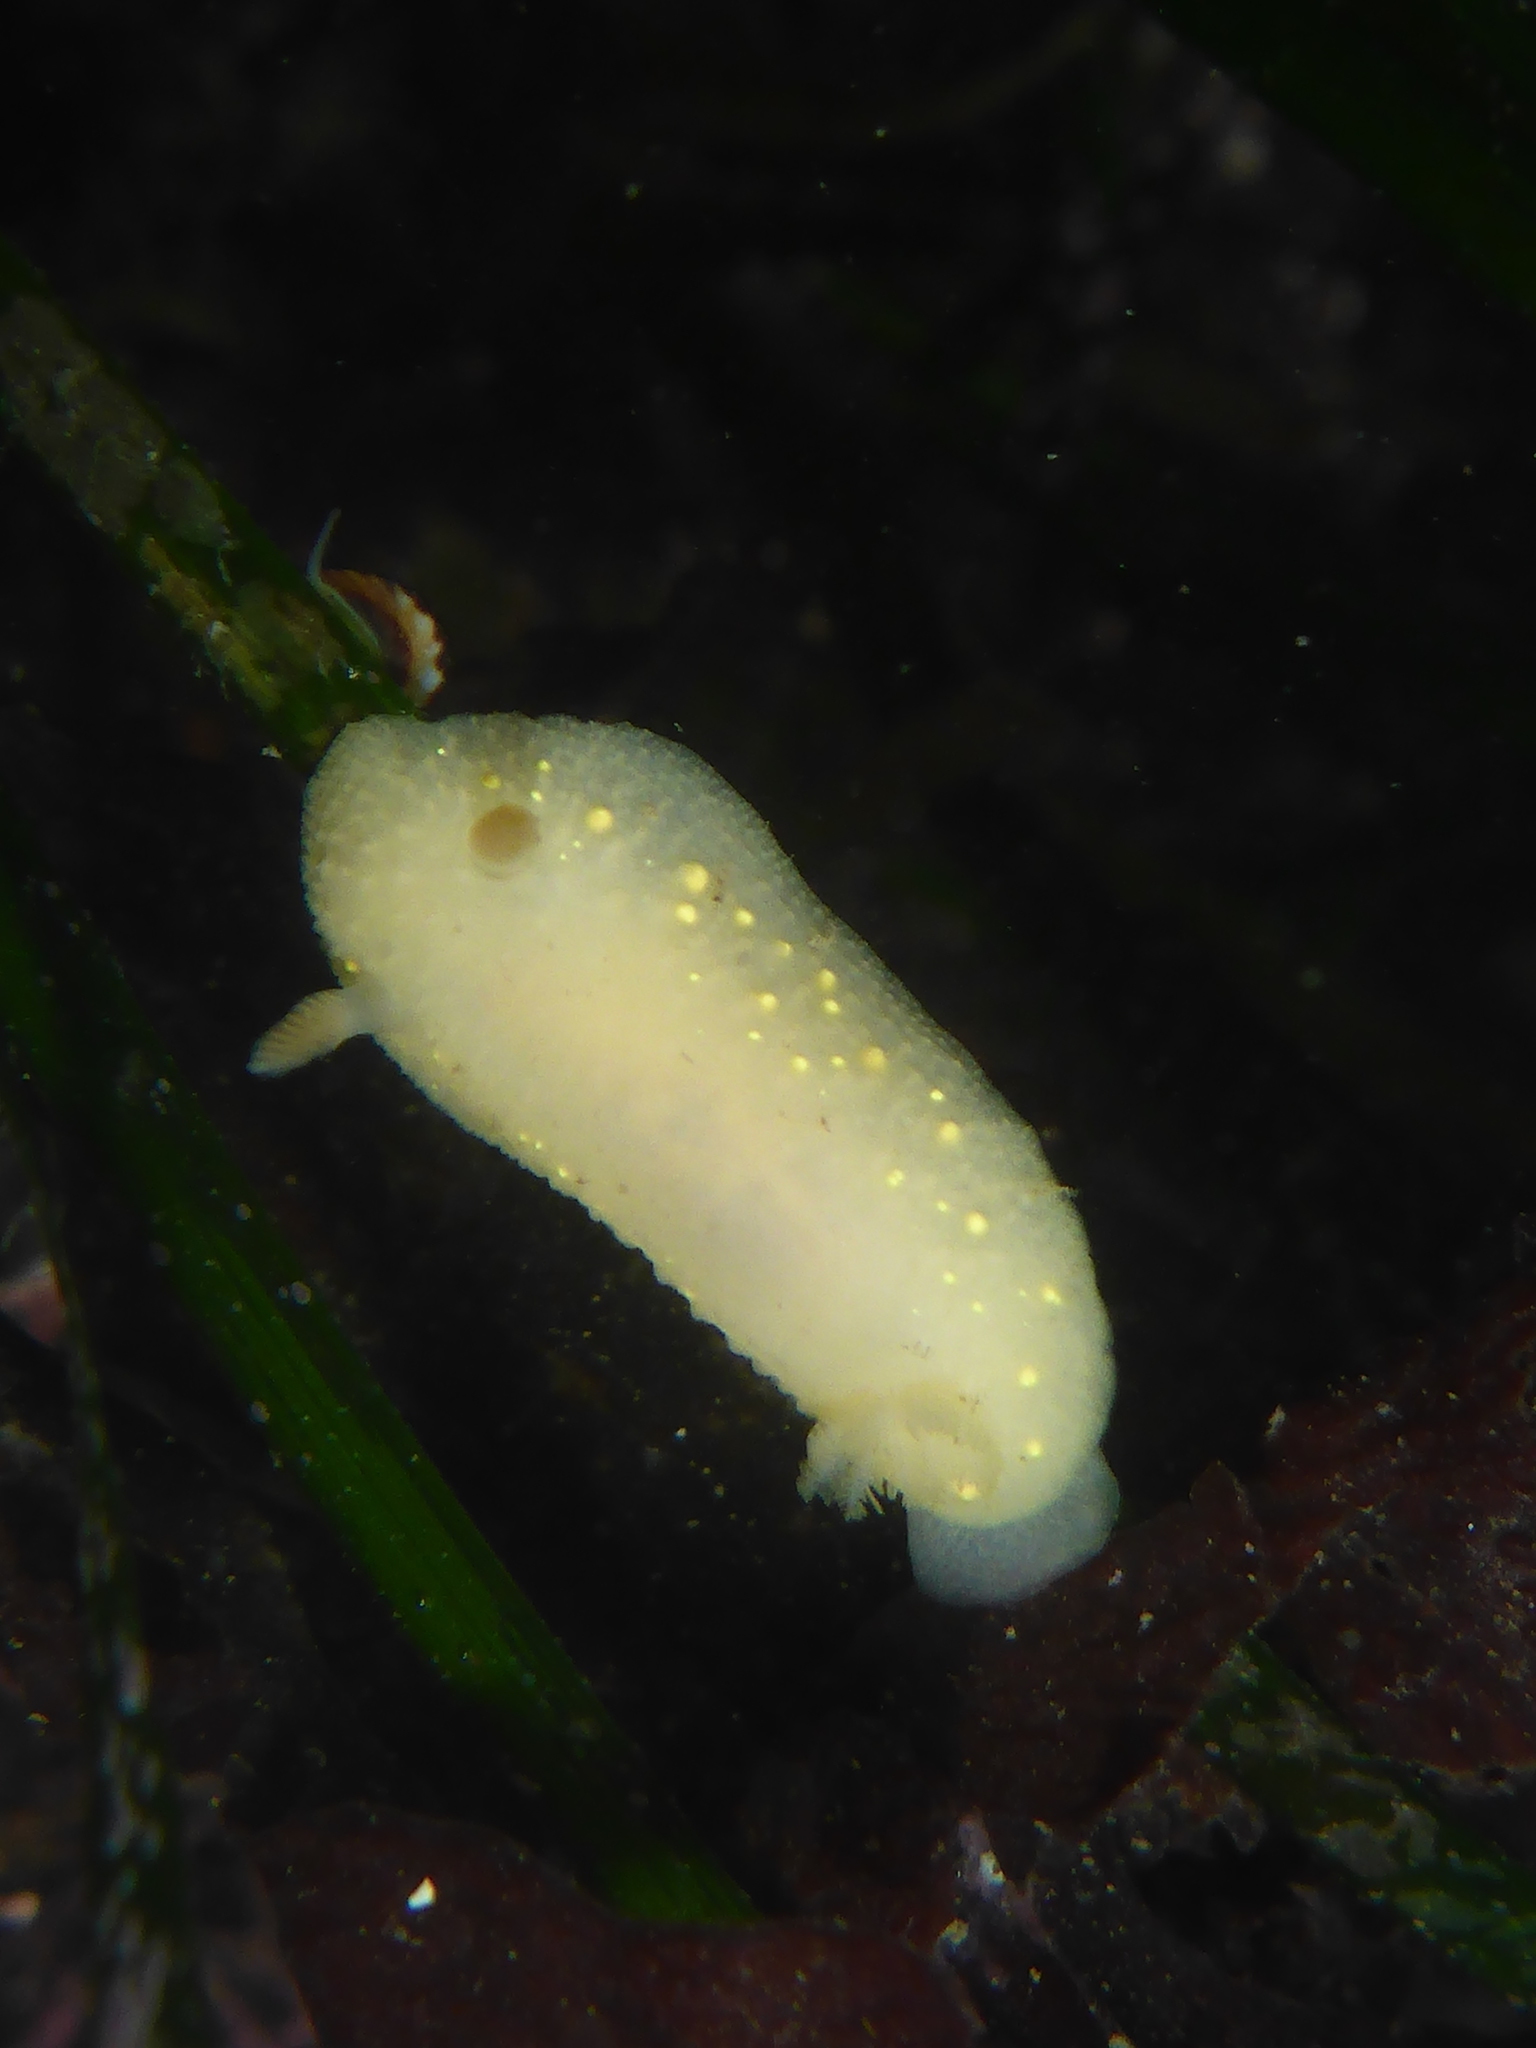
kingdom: Animalia
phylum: Mollusca
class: Gastropoda
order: Nudibranchia
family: Cadlinidae
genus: Cadlina
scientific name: Cadlina modesta
